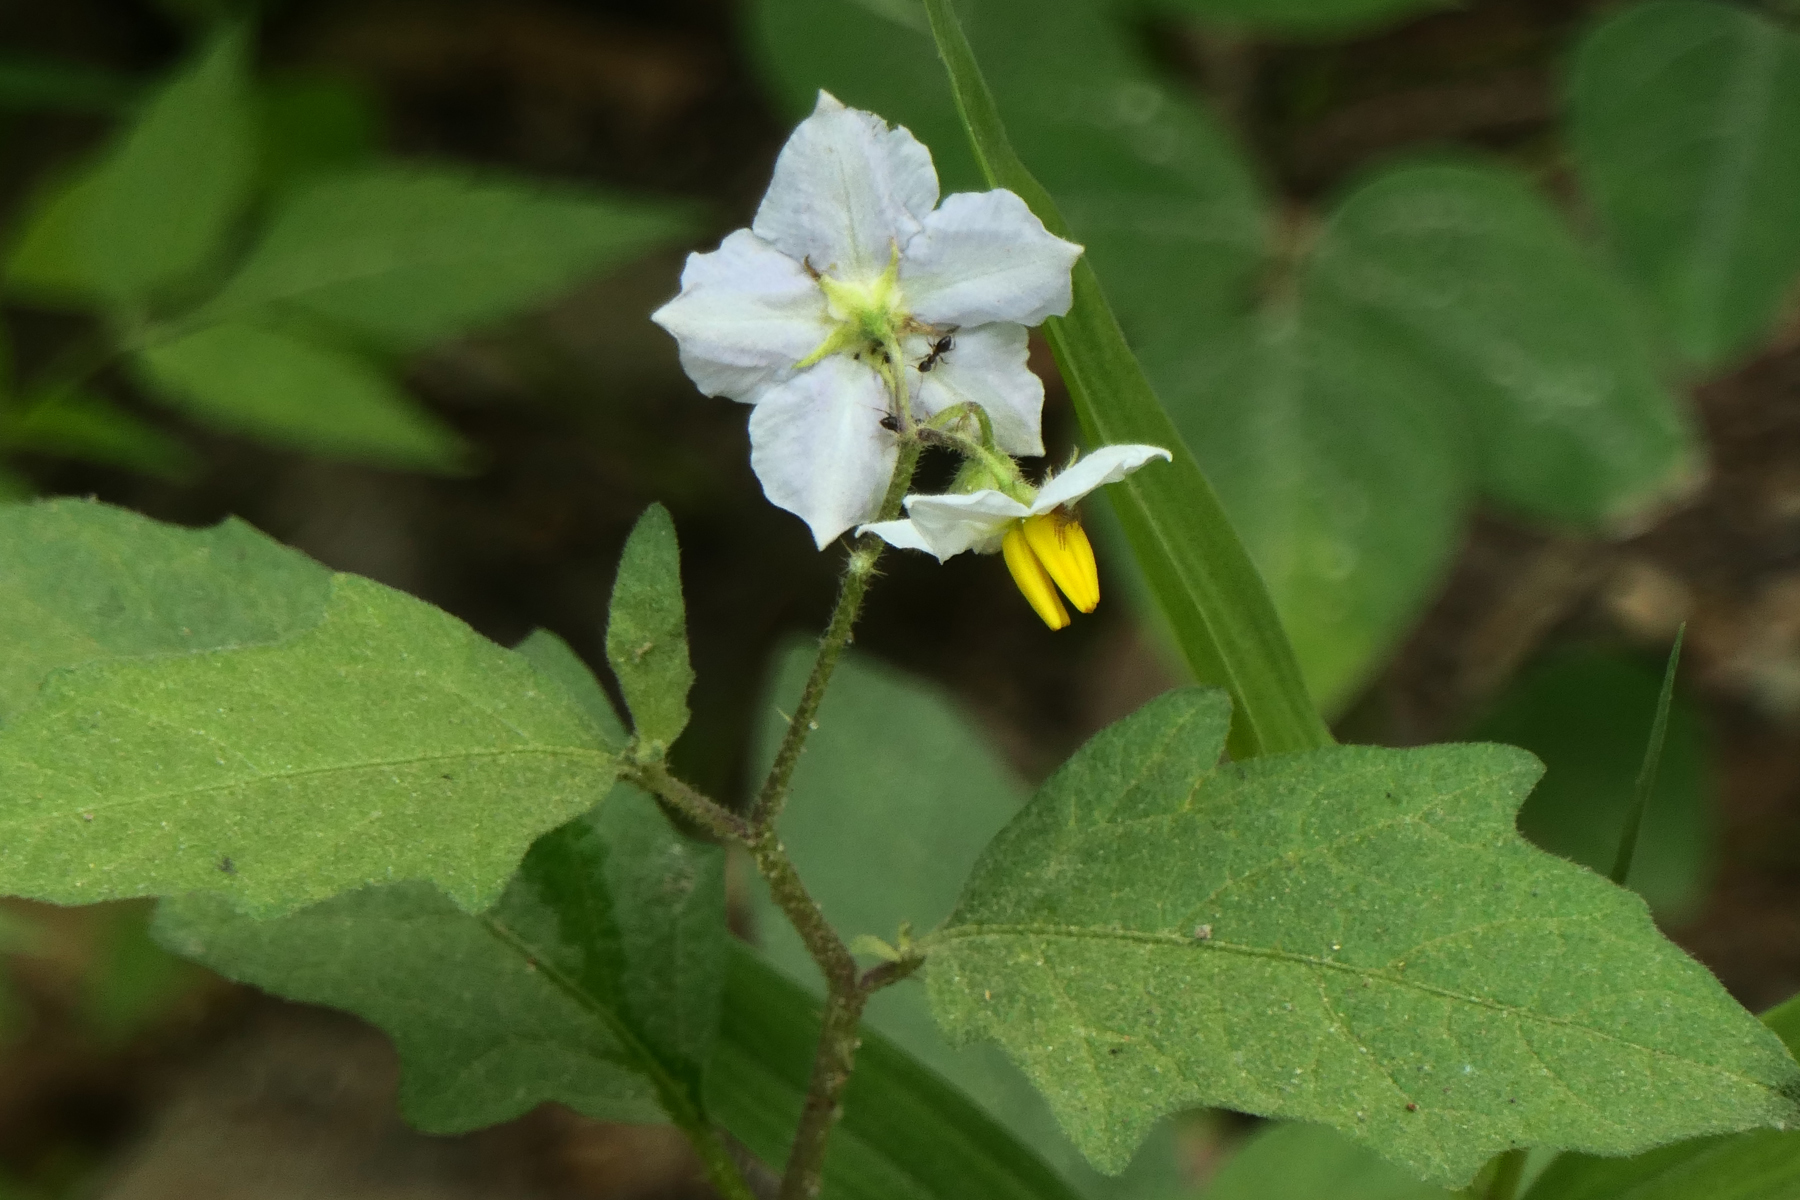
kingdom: Plantae
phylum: Tracheophyta
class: Magnoliopsida
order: Solanales
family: Solanaceae
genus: Solanum
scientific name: Solanum carolinense
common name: Horse-nettle
